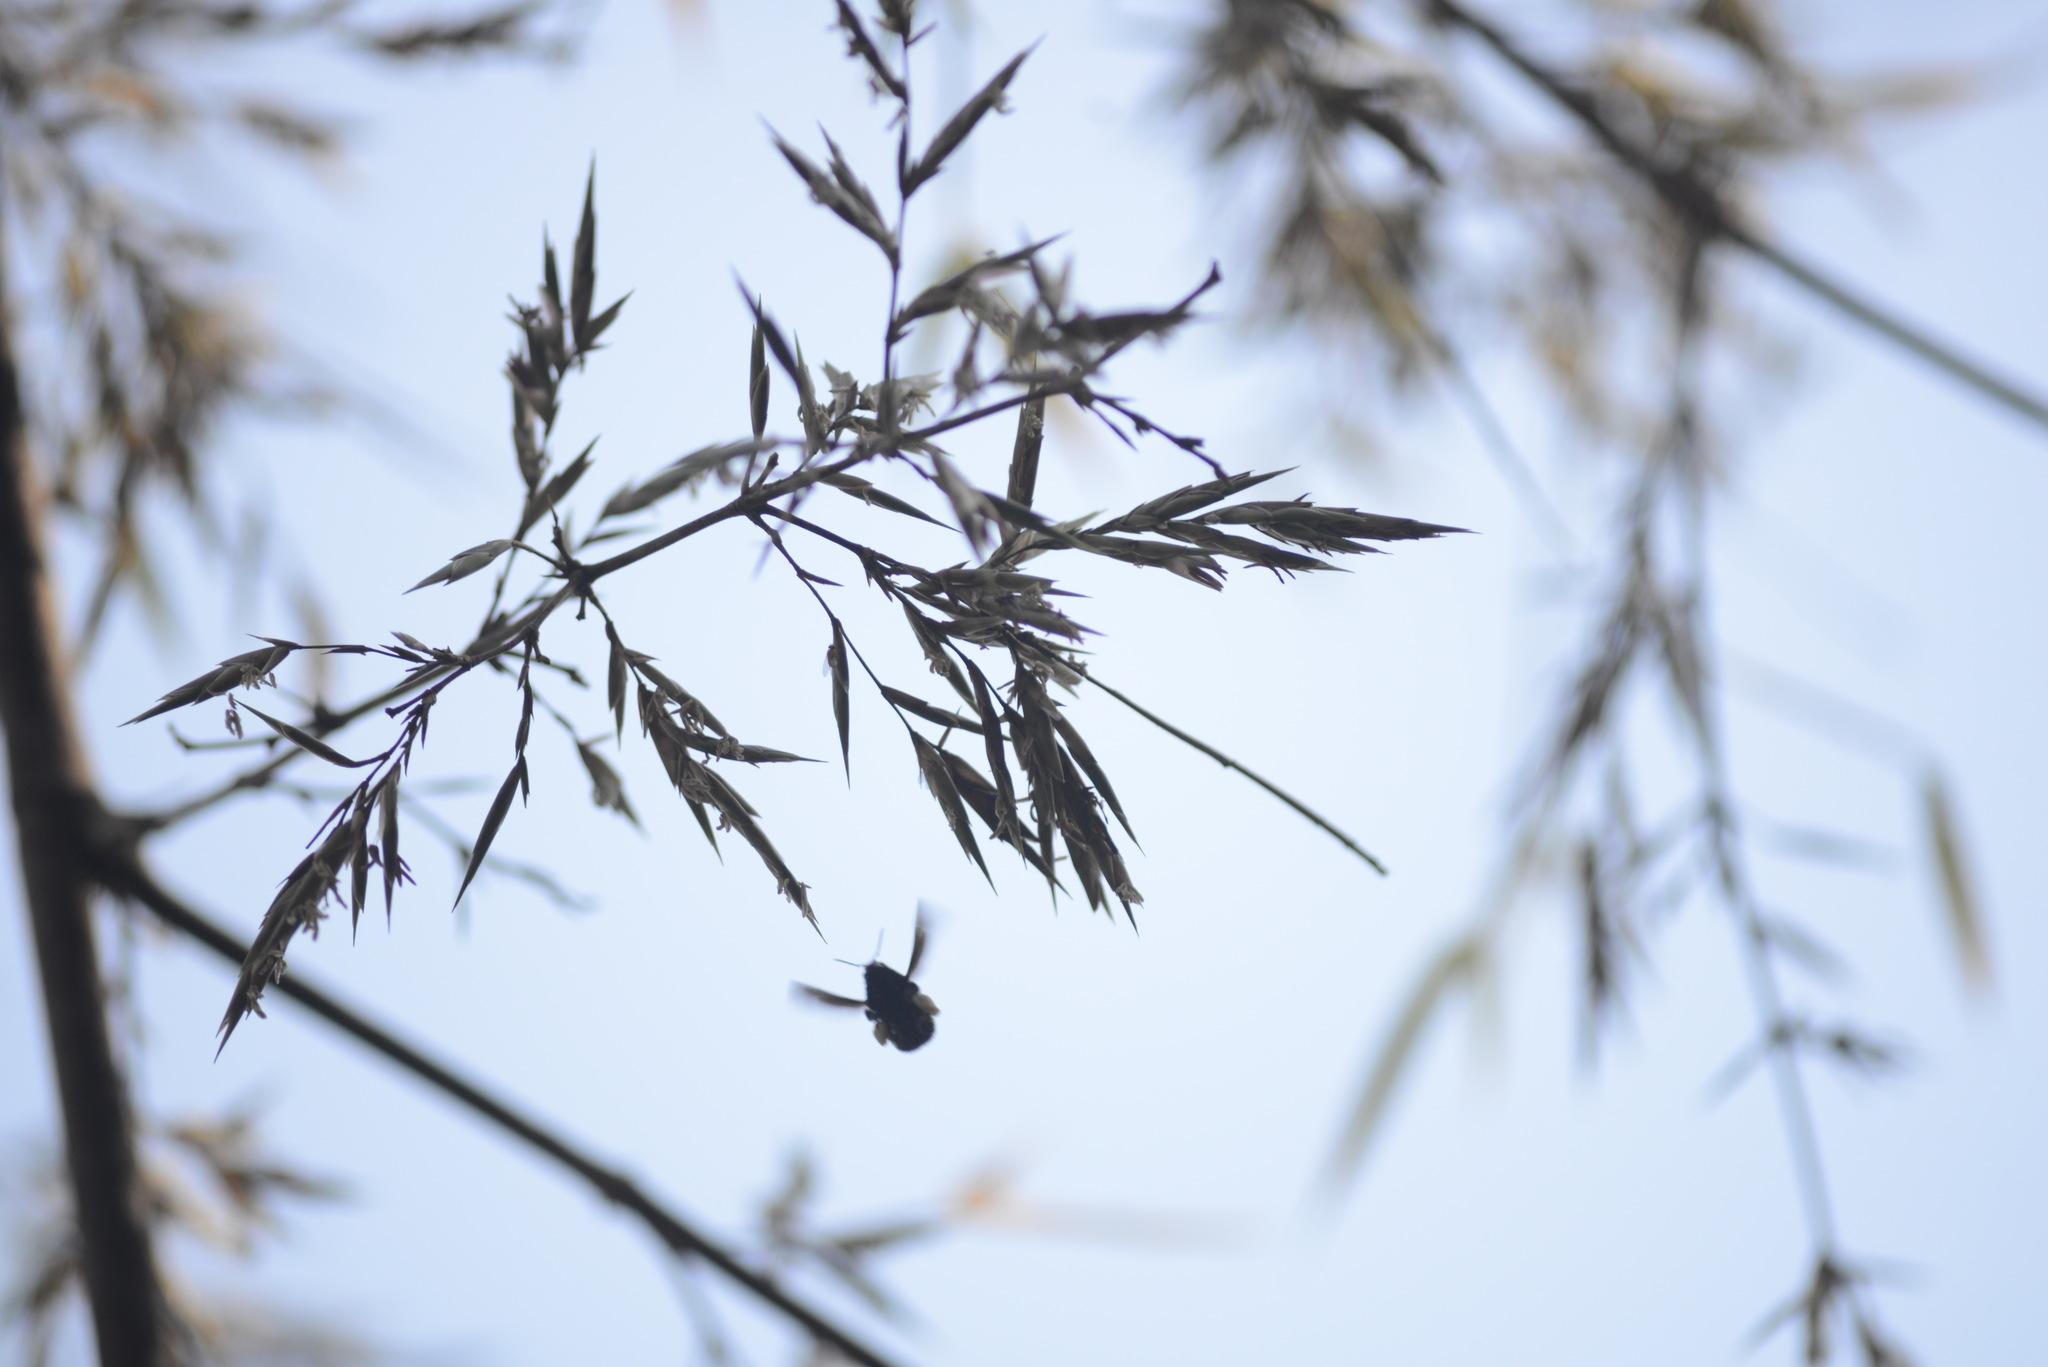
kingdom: Animalia
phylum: Arthropoda
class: Insecta
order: Hymenoptera
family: Apidae
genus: Bombus
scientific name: Bombus pauloensis
